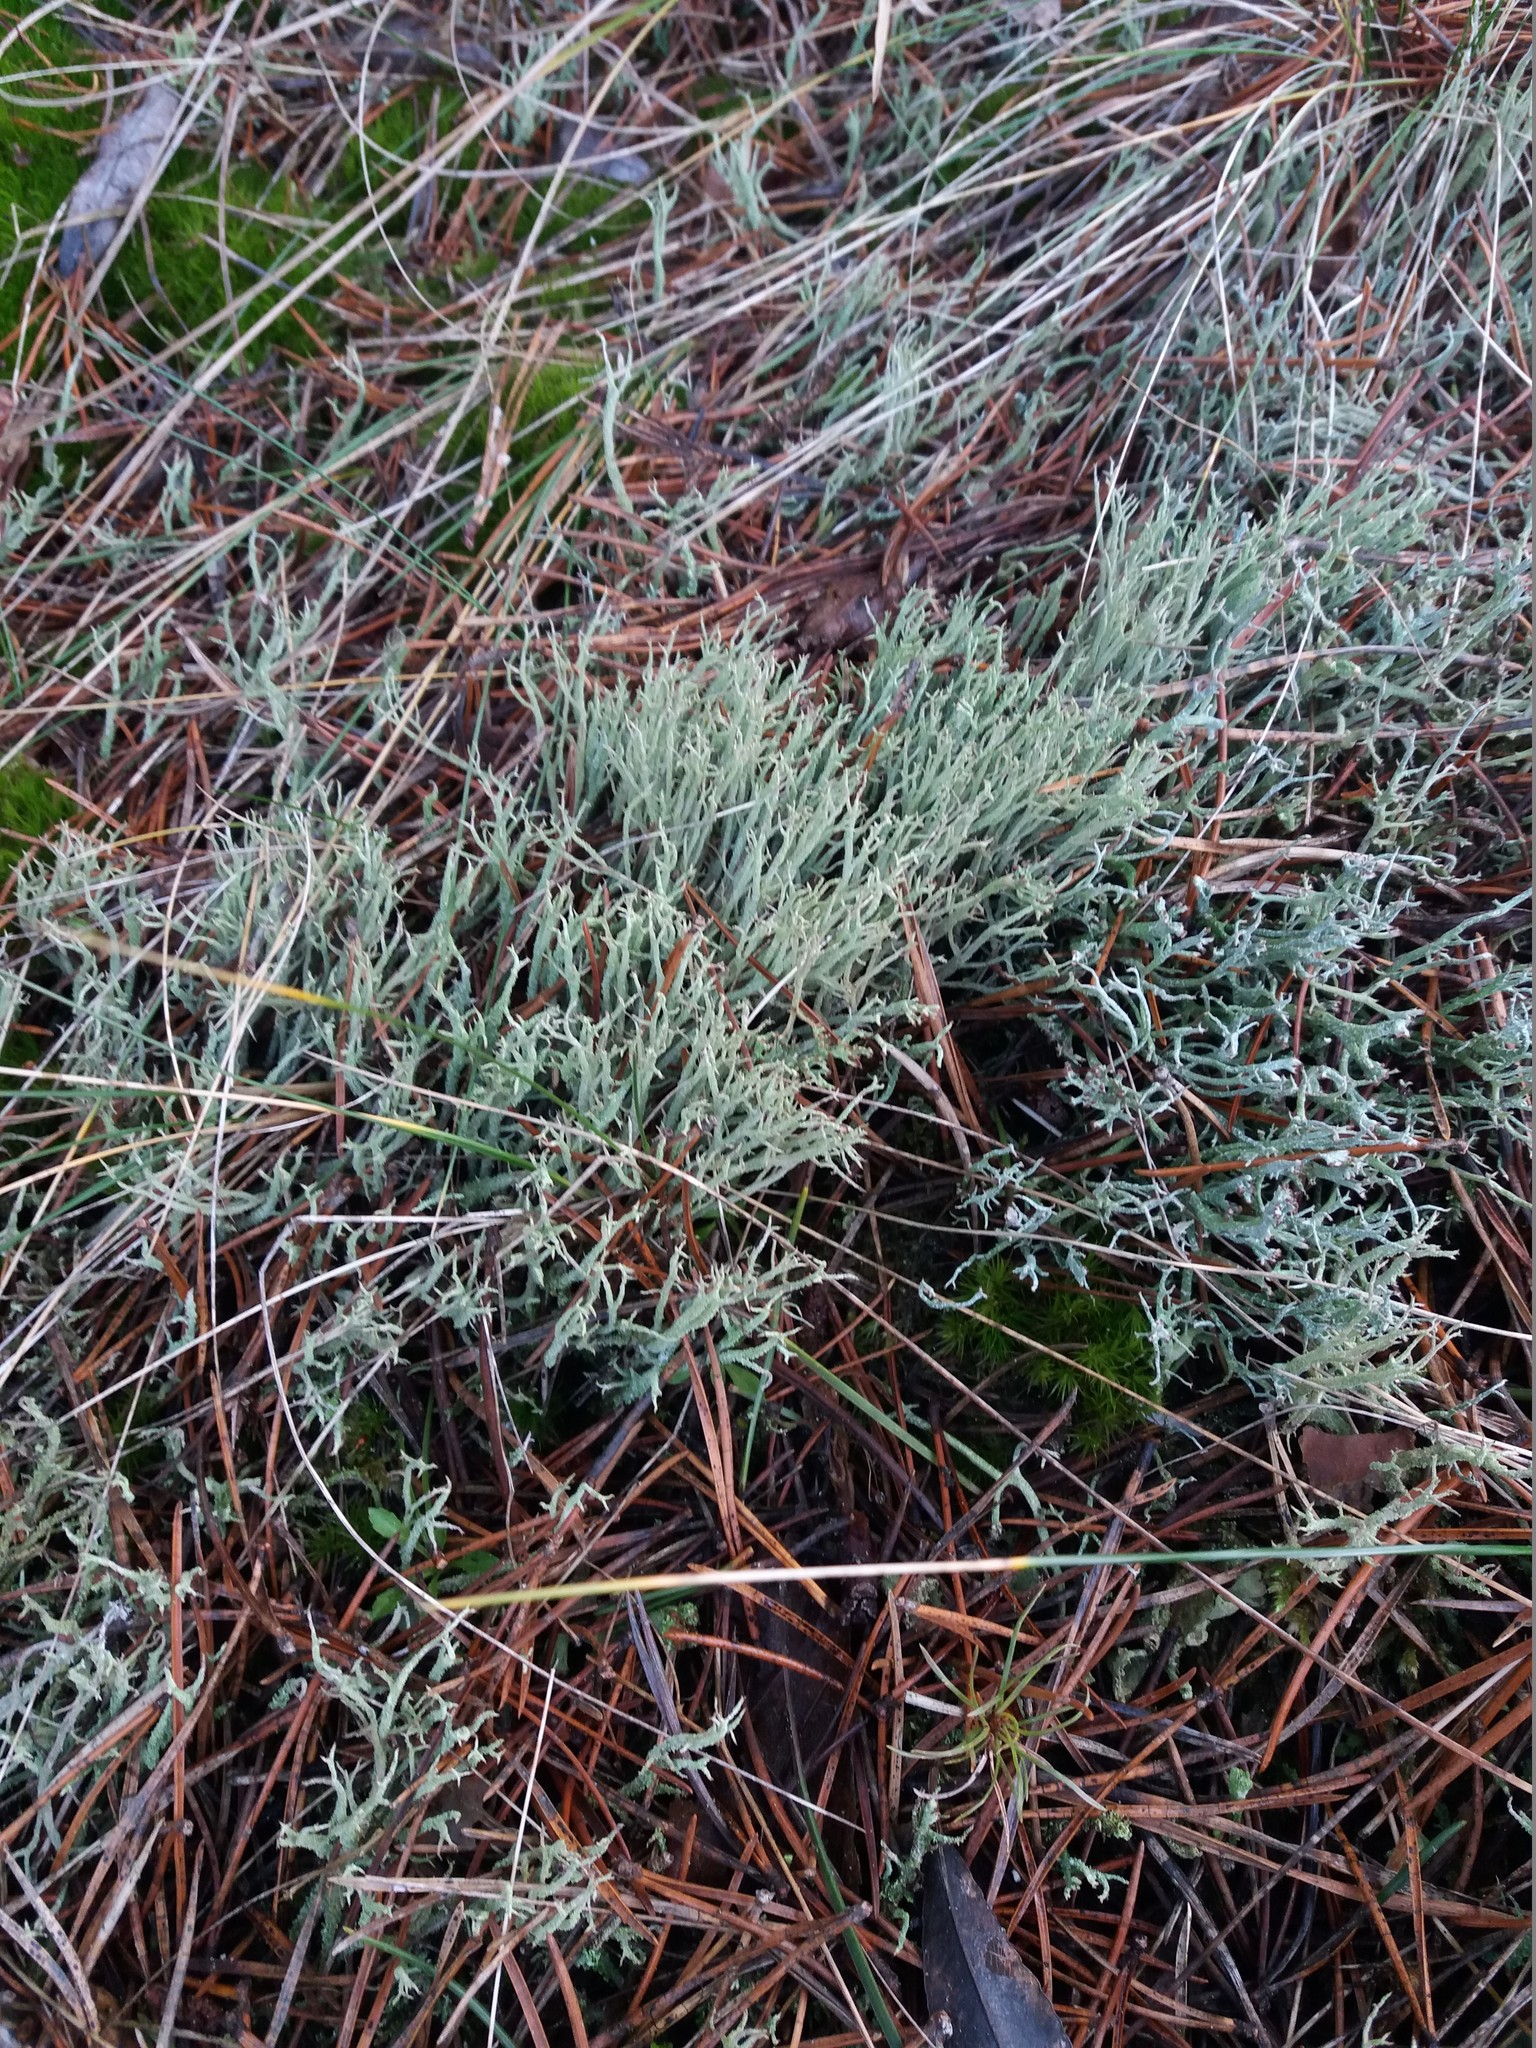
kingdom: Fungi
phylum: Ascomycota
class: Lecanoromycetes
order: Lecanorales
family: Cladoniaceae
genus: Cladonia
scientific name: Cladonia scabriuscula
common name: Mealy forked clad lichen
